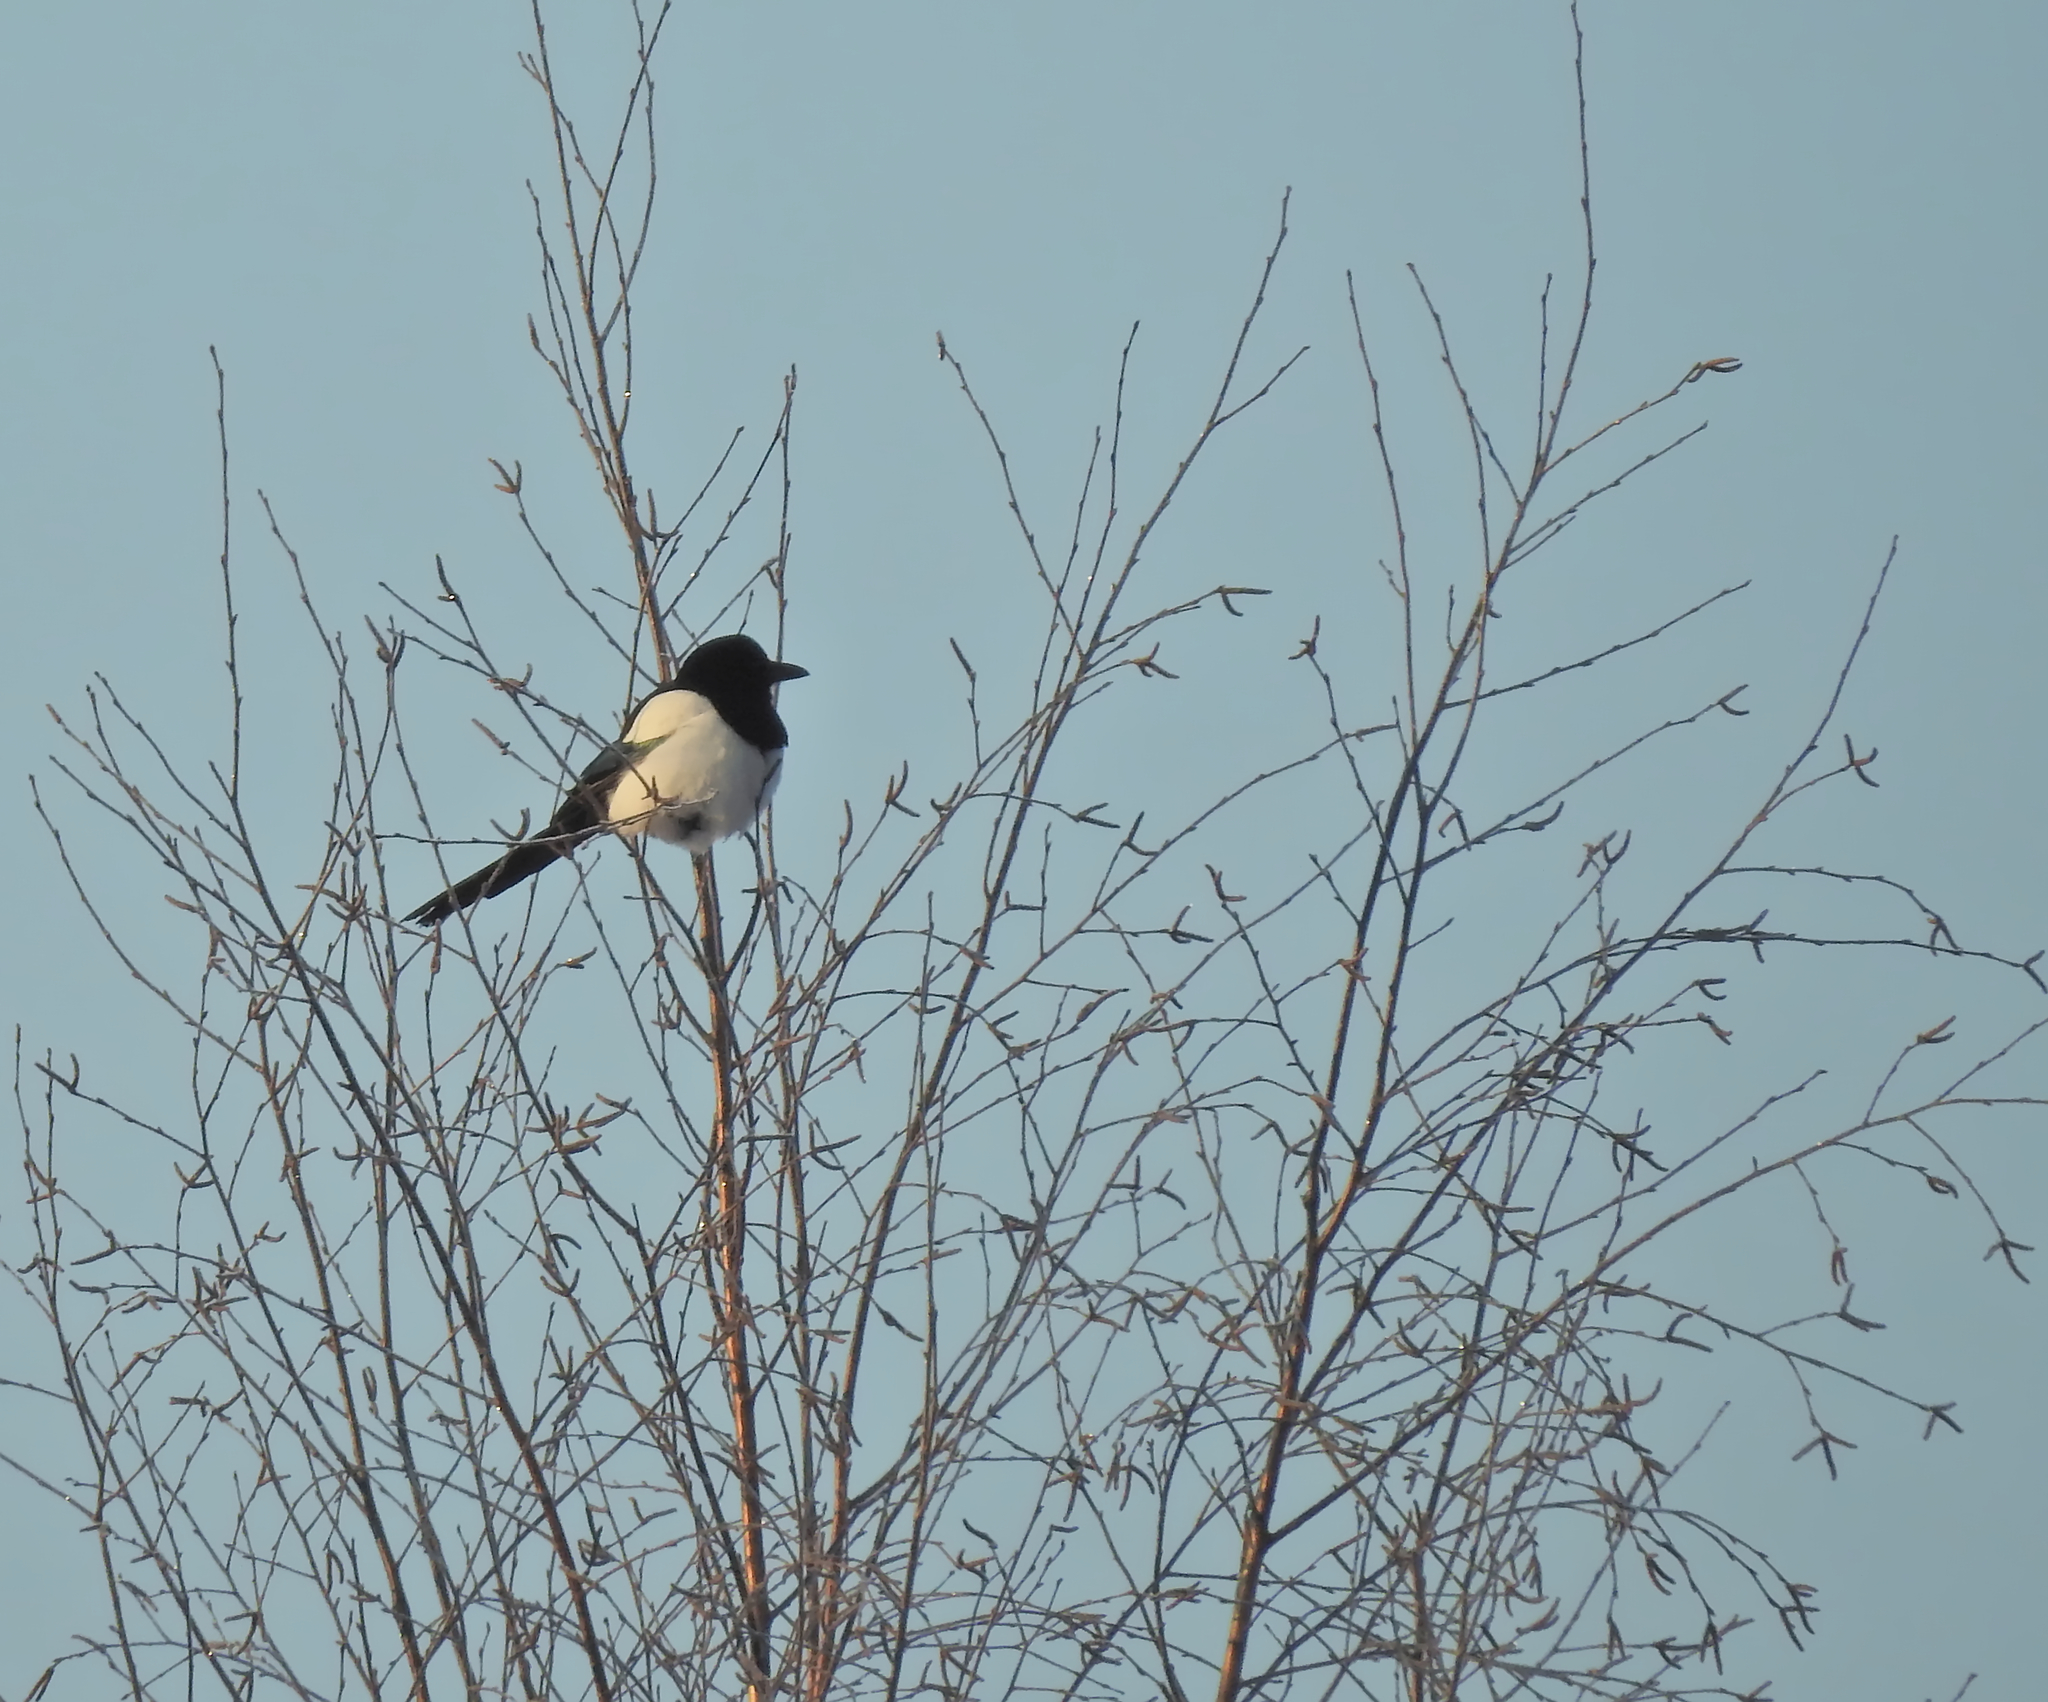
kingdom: Animalia
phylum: Chordata
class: Aves
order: Passeriformes
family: Corvidae
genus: Pica
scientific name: Pica pica
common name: Eurasian magpie
